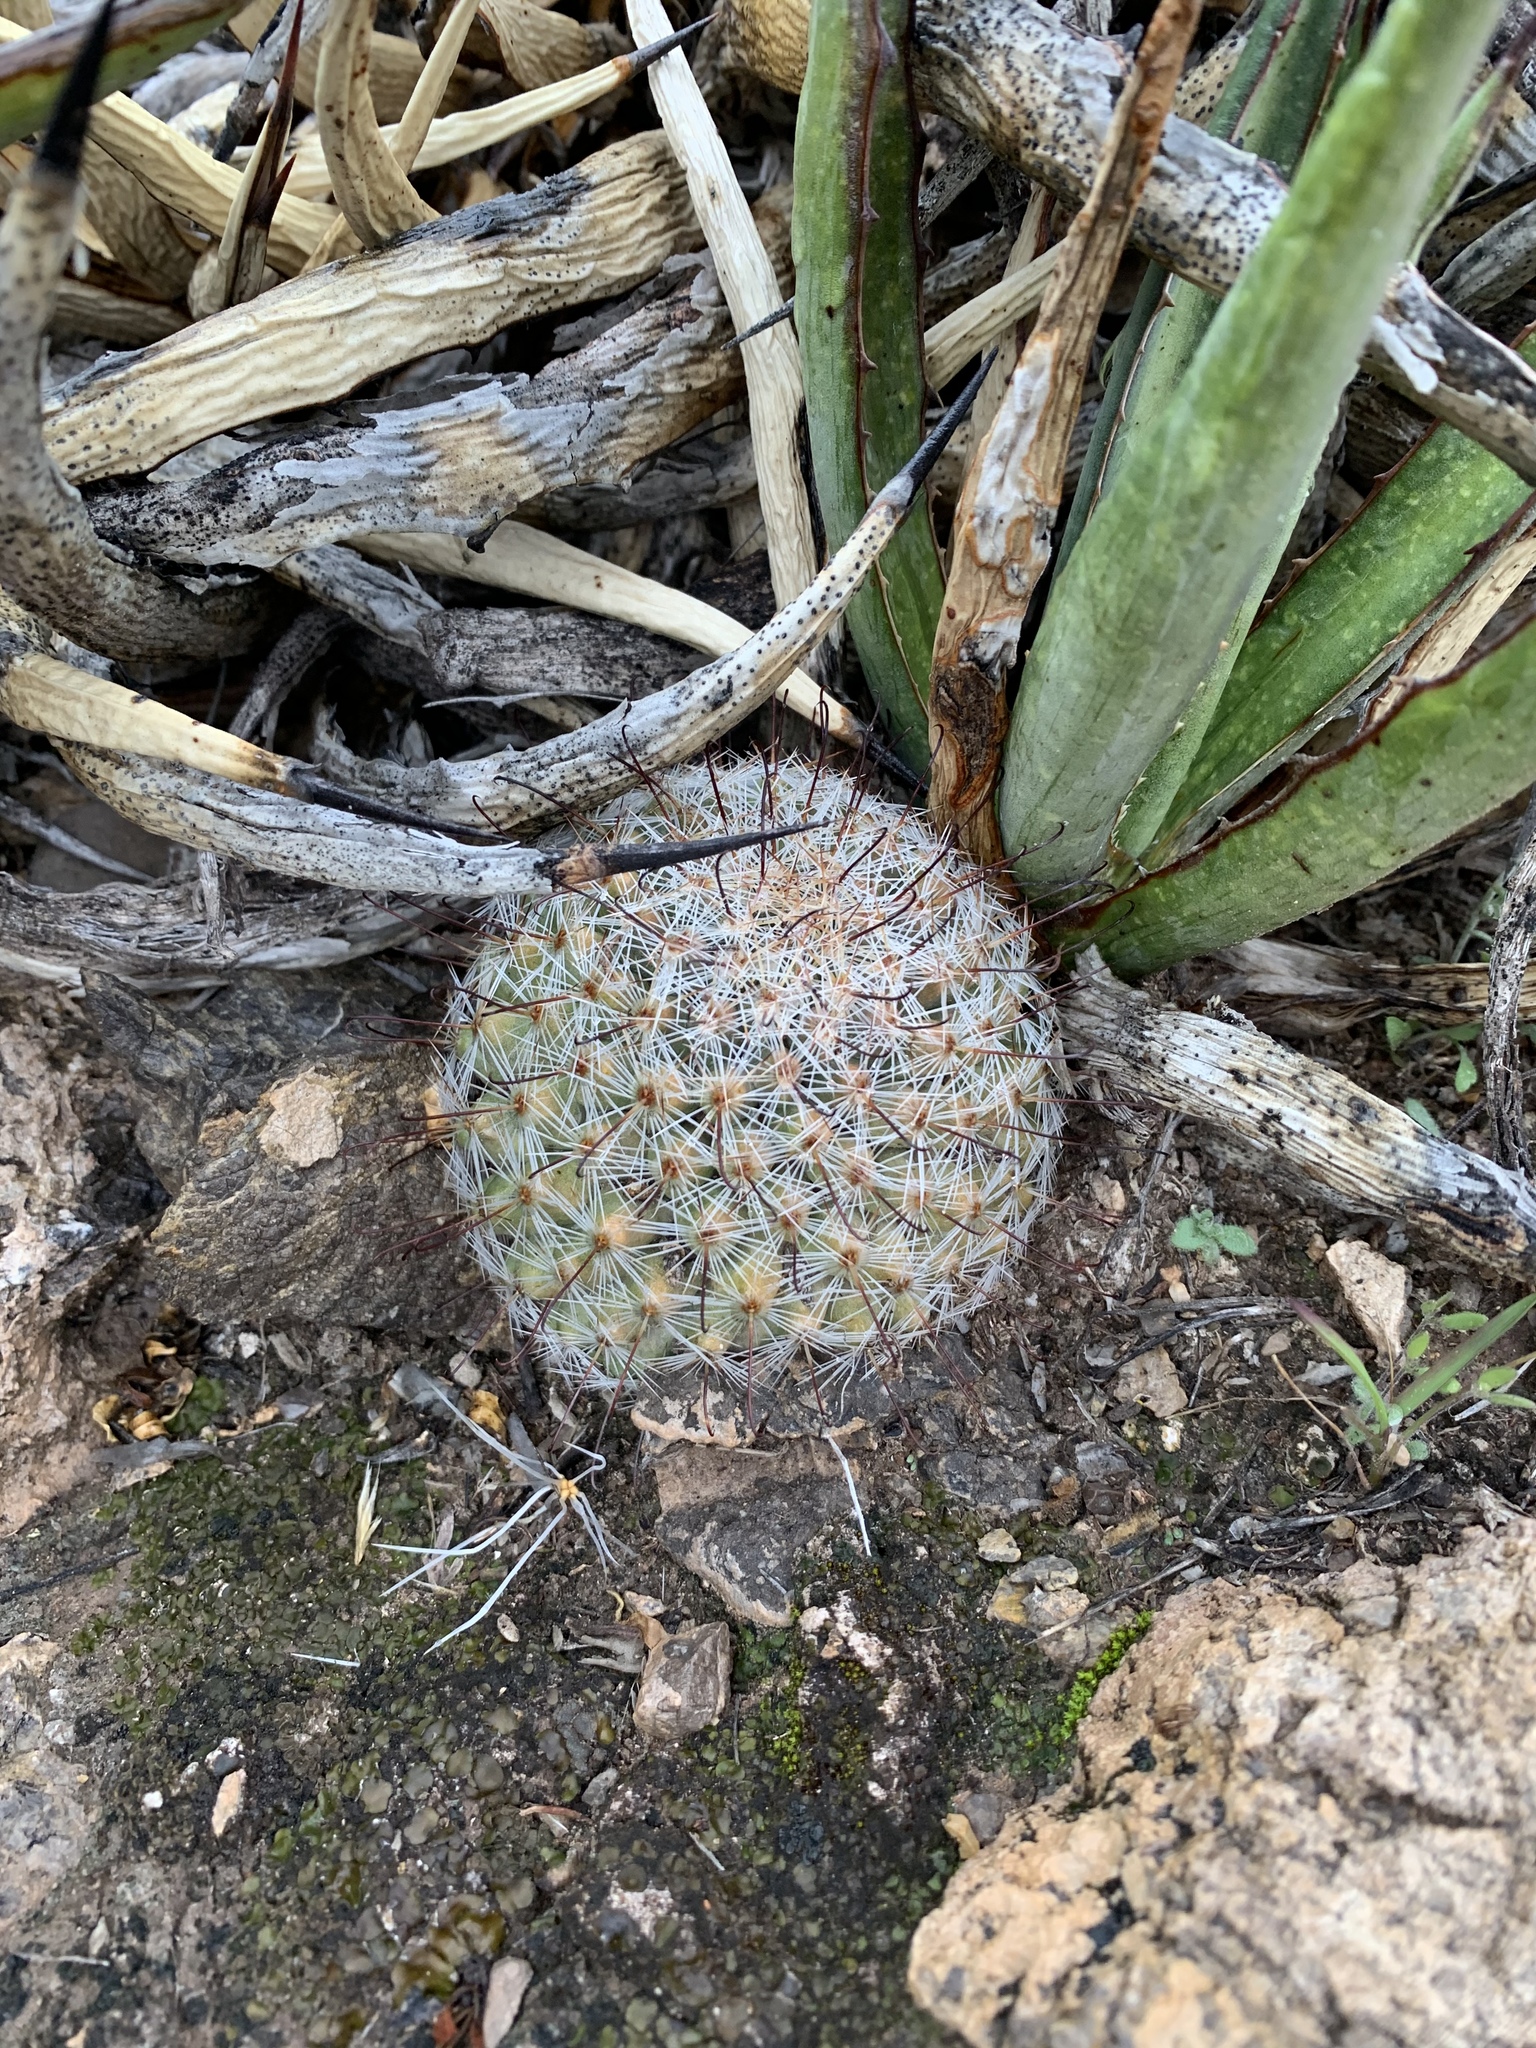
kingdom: Plantae
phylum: Tracheophyta
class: Magnoliopsida
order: Caryophyllales
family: Cactaceae
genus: Cochemiea
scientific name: Cochemiea grahamii
